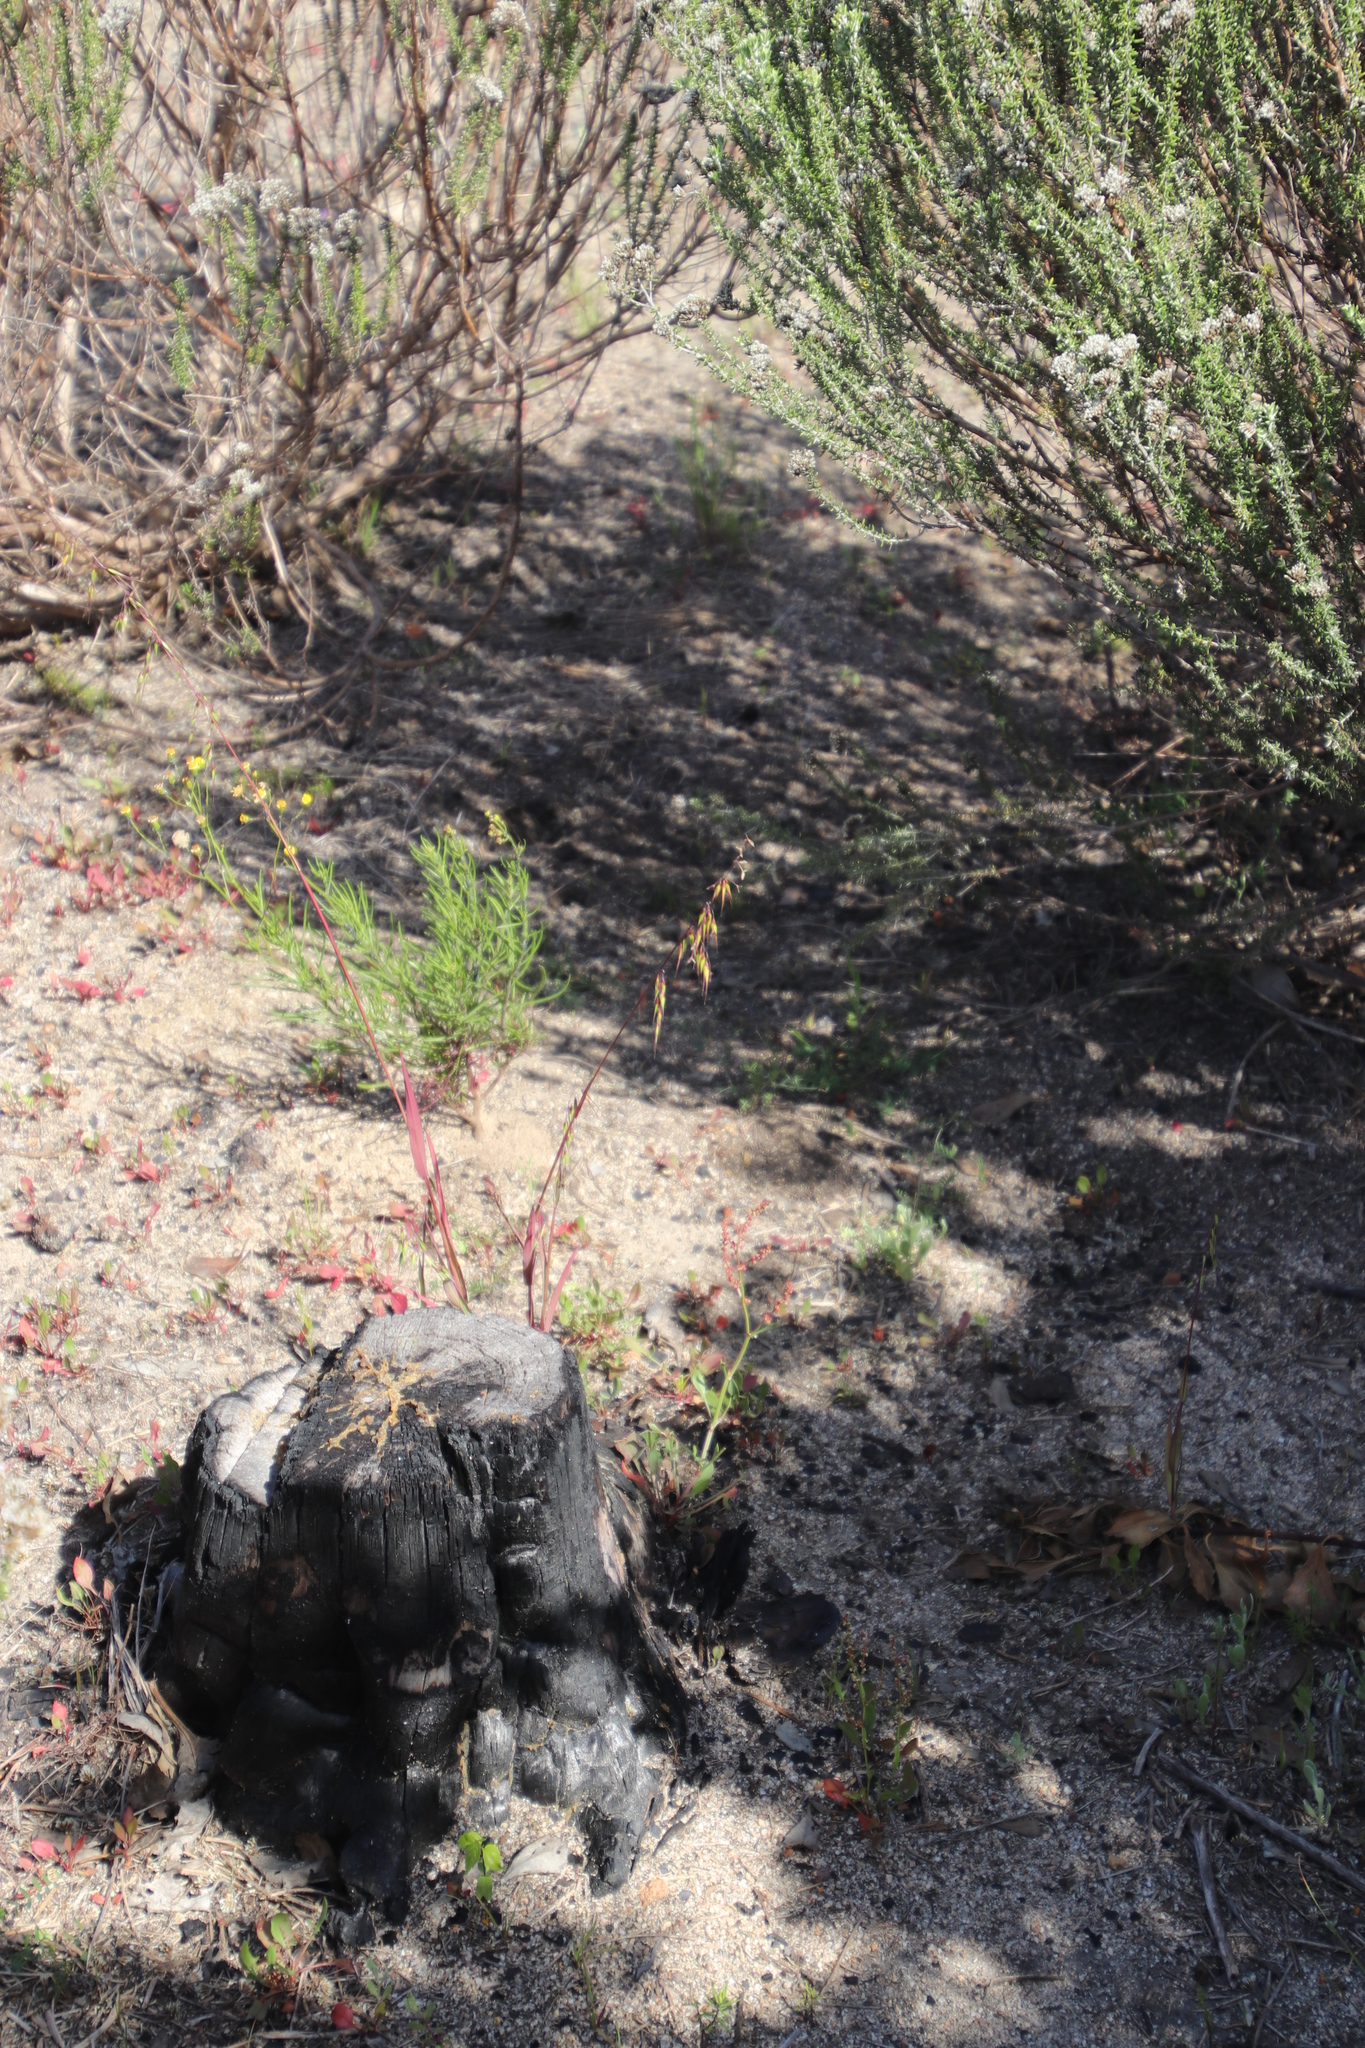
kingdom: Plantae
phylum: Tracheophyta
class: Magnoliopsida
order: Asterales
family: Asteraceae
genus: Senecio
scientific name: Senecio burchellii
